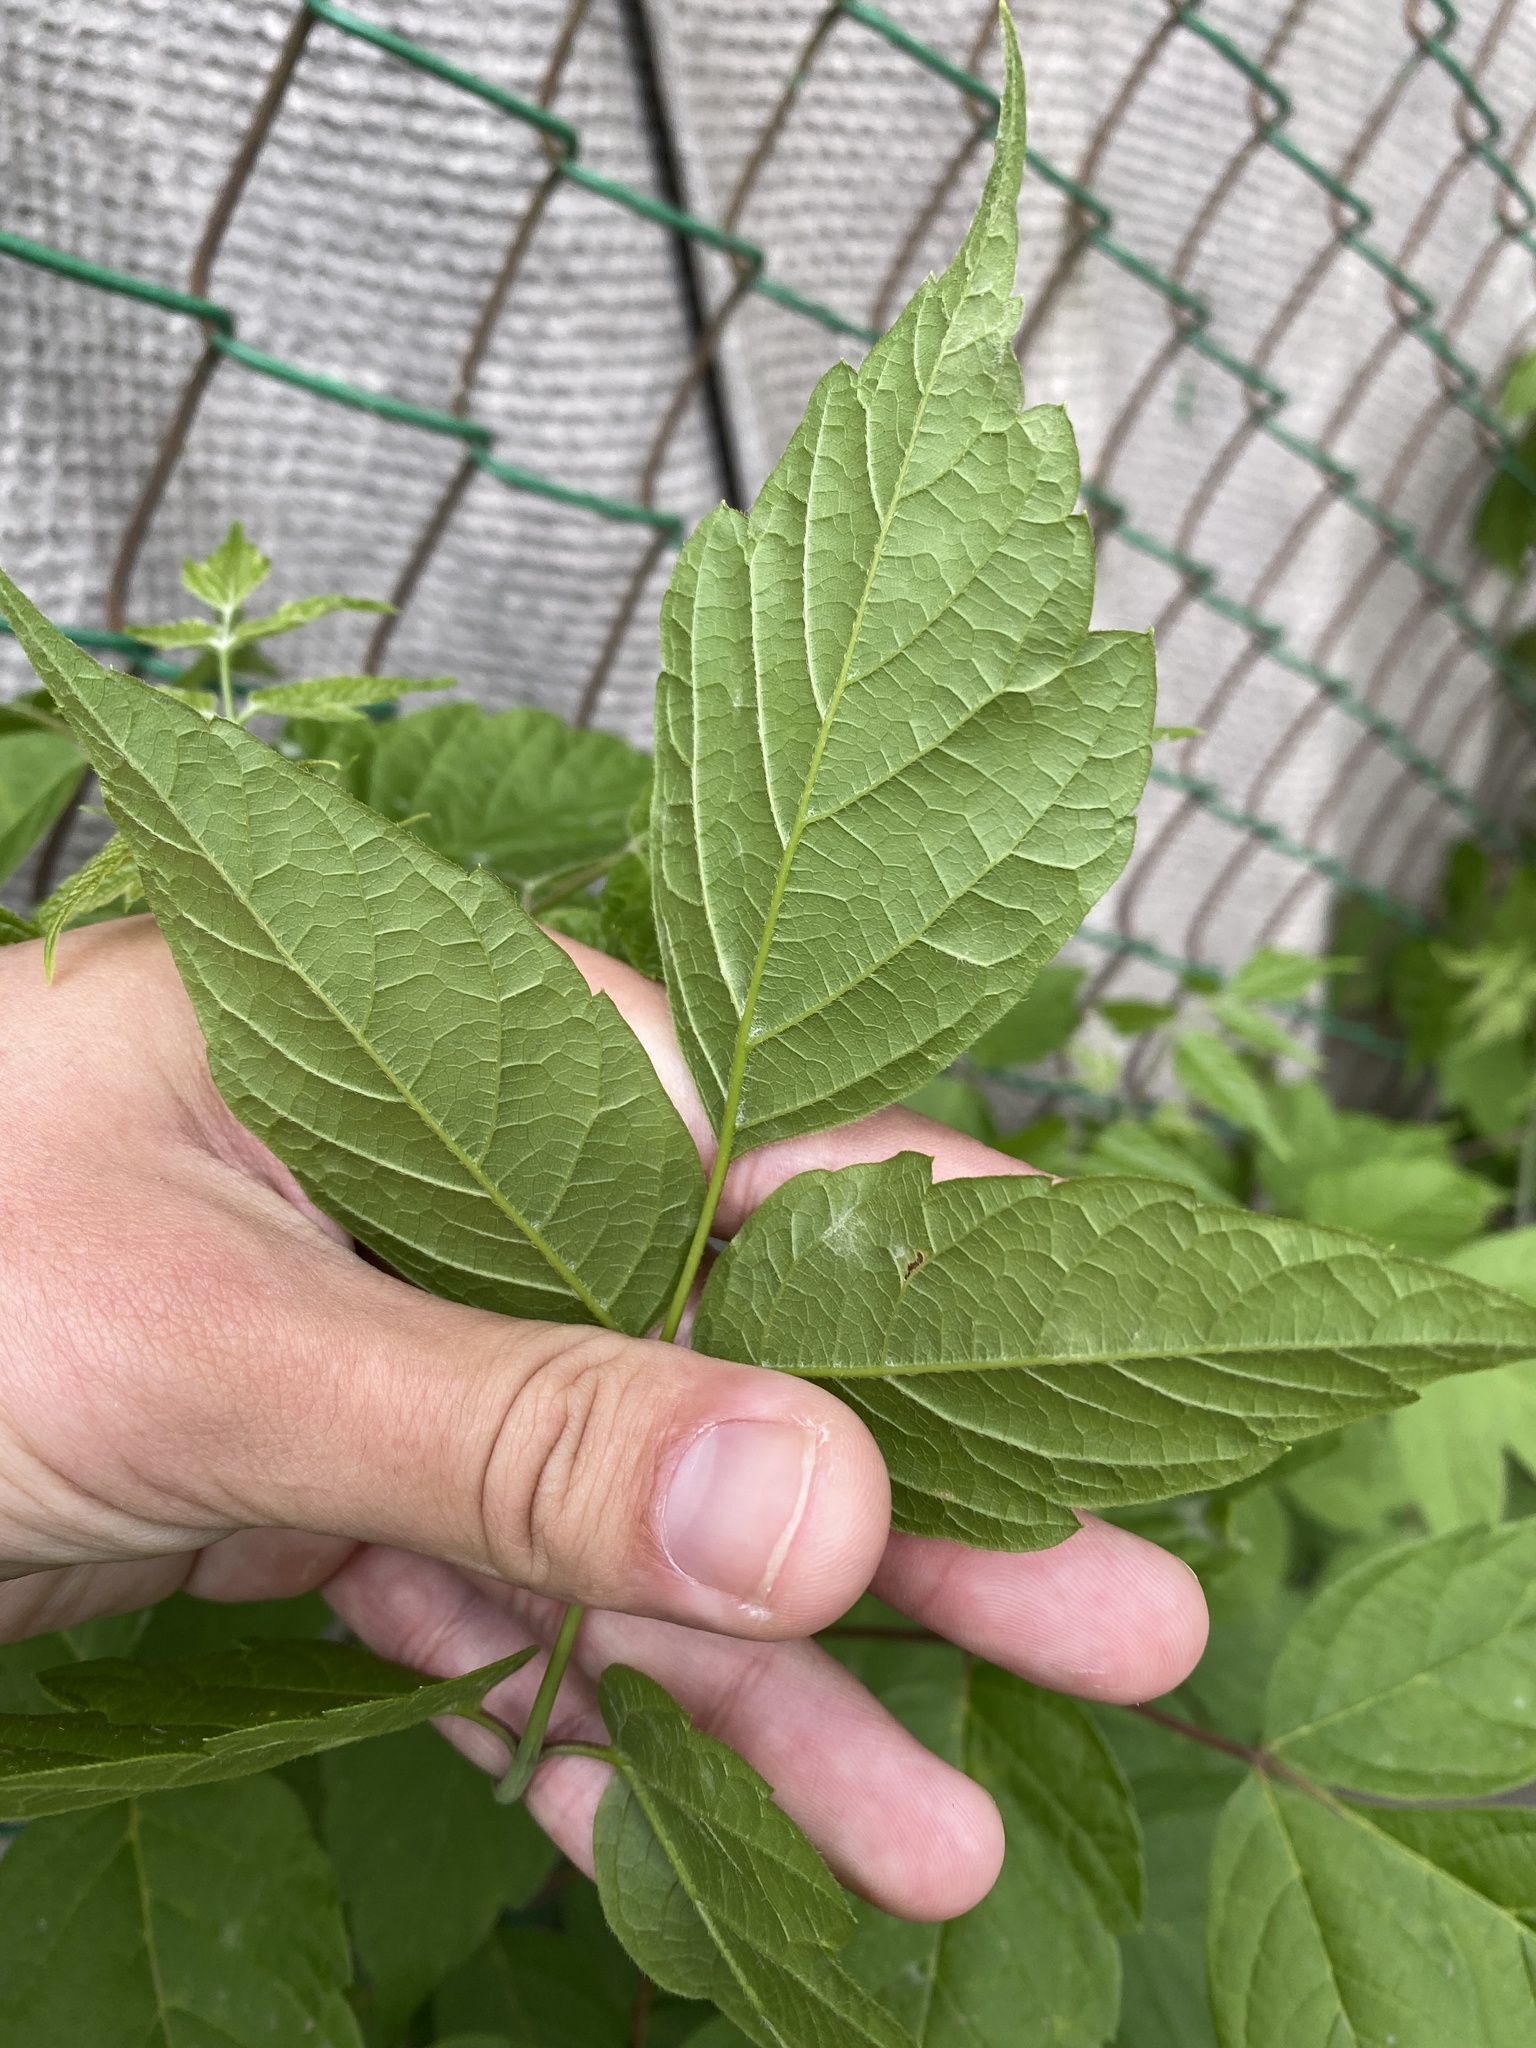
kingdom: Plantae
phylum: Tracheophyta
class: Magnoliopsida
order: Sapindales
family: Sapindaceae
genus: Acer
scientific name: Acer negundo
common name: Ashleaf maple
